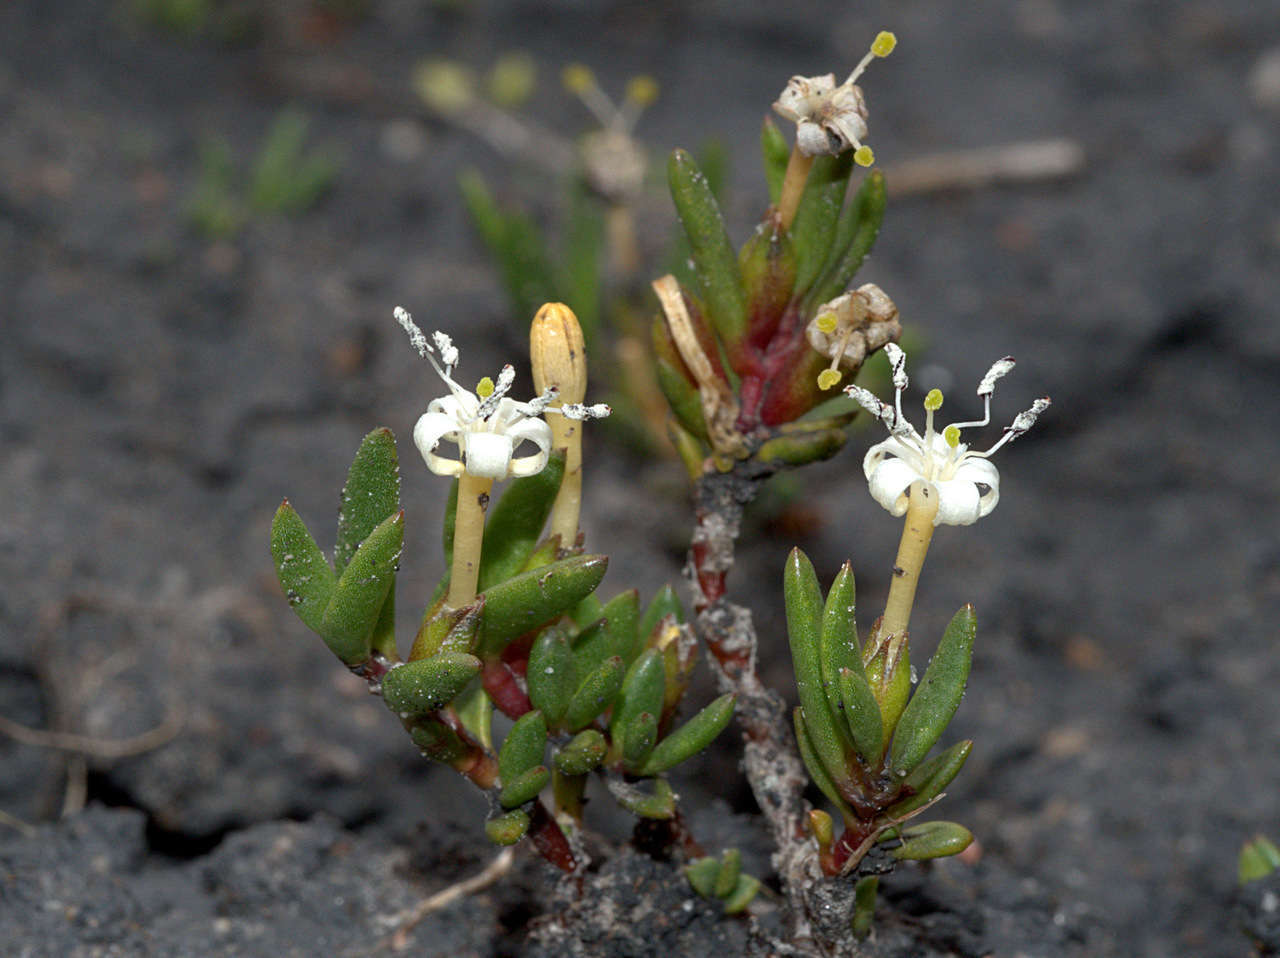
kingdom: Plantae
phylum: Tracheophyta
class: Magnoliopsida
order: Solanales
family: Convolvulaceae
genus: Wilsonia
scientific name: Wilsonia backhousei
